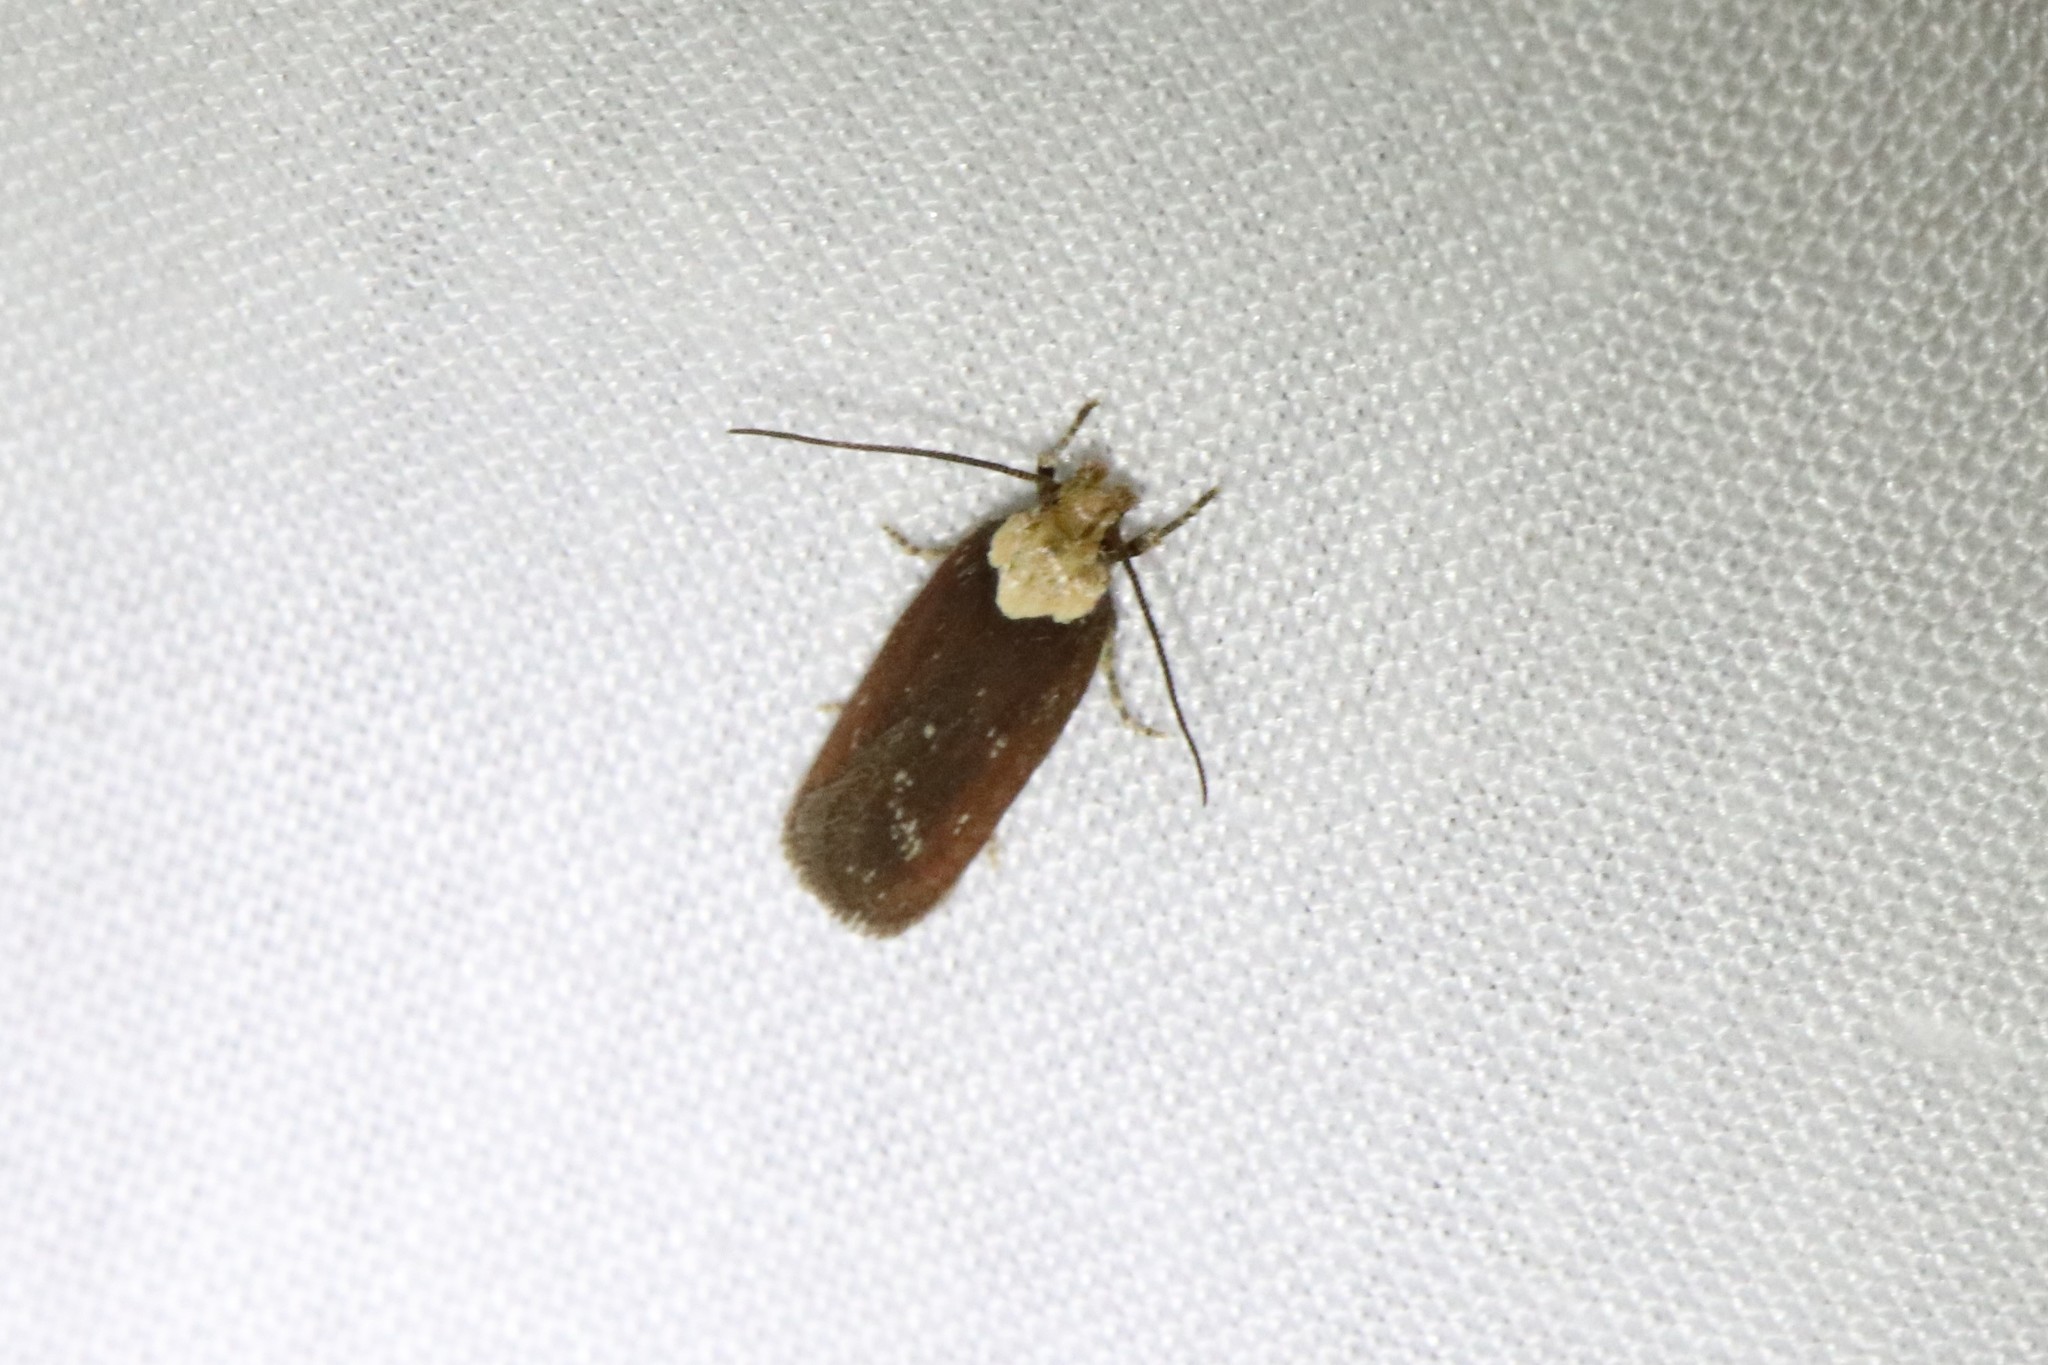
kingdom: Animalia
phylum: Arthropoda
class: Insecta
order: Lepidoptera
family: Depressariidae
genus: Depressaria
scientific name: Depressaria depressana
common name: Lost flat-body
